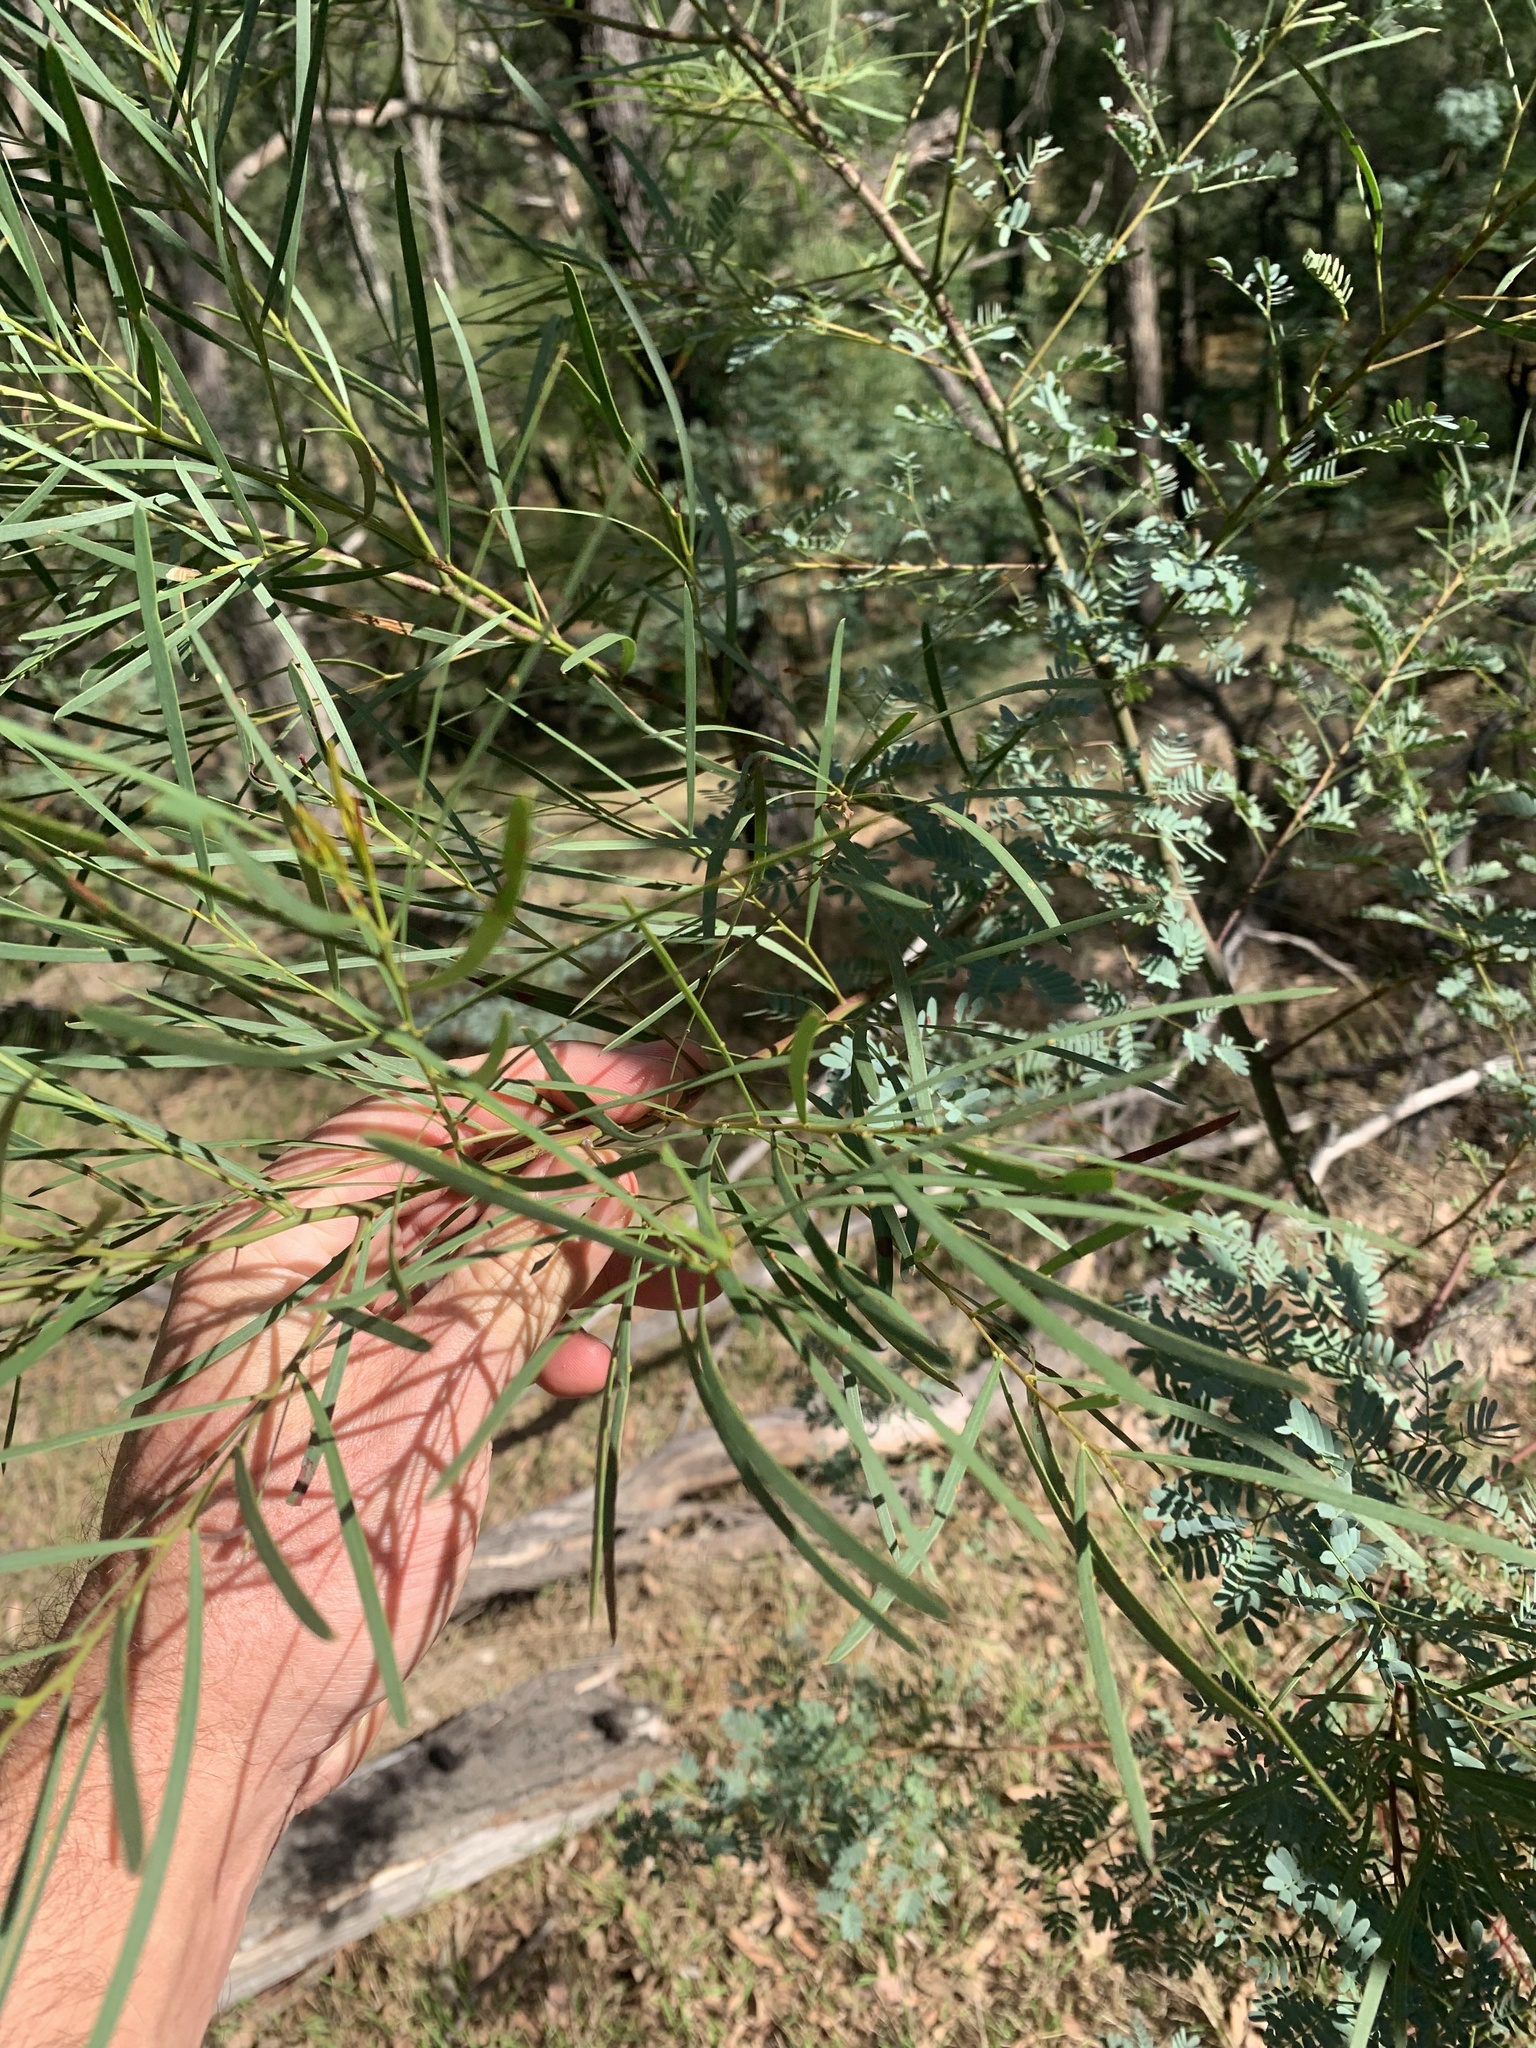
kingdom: Plantae
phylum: Tracheophyta
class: Magnoliopsida
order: Fabales
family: Fabaceae
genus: Acacia
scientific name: Acacia linearifolia
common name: Stringybark wattle
